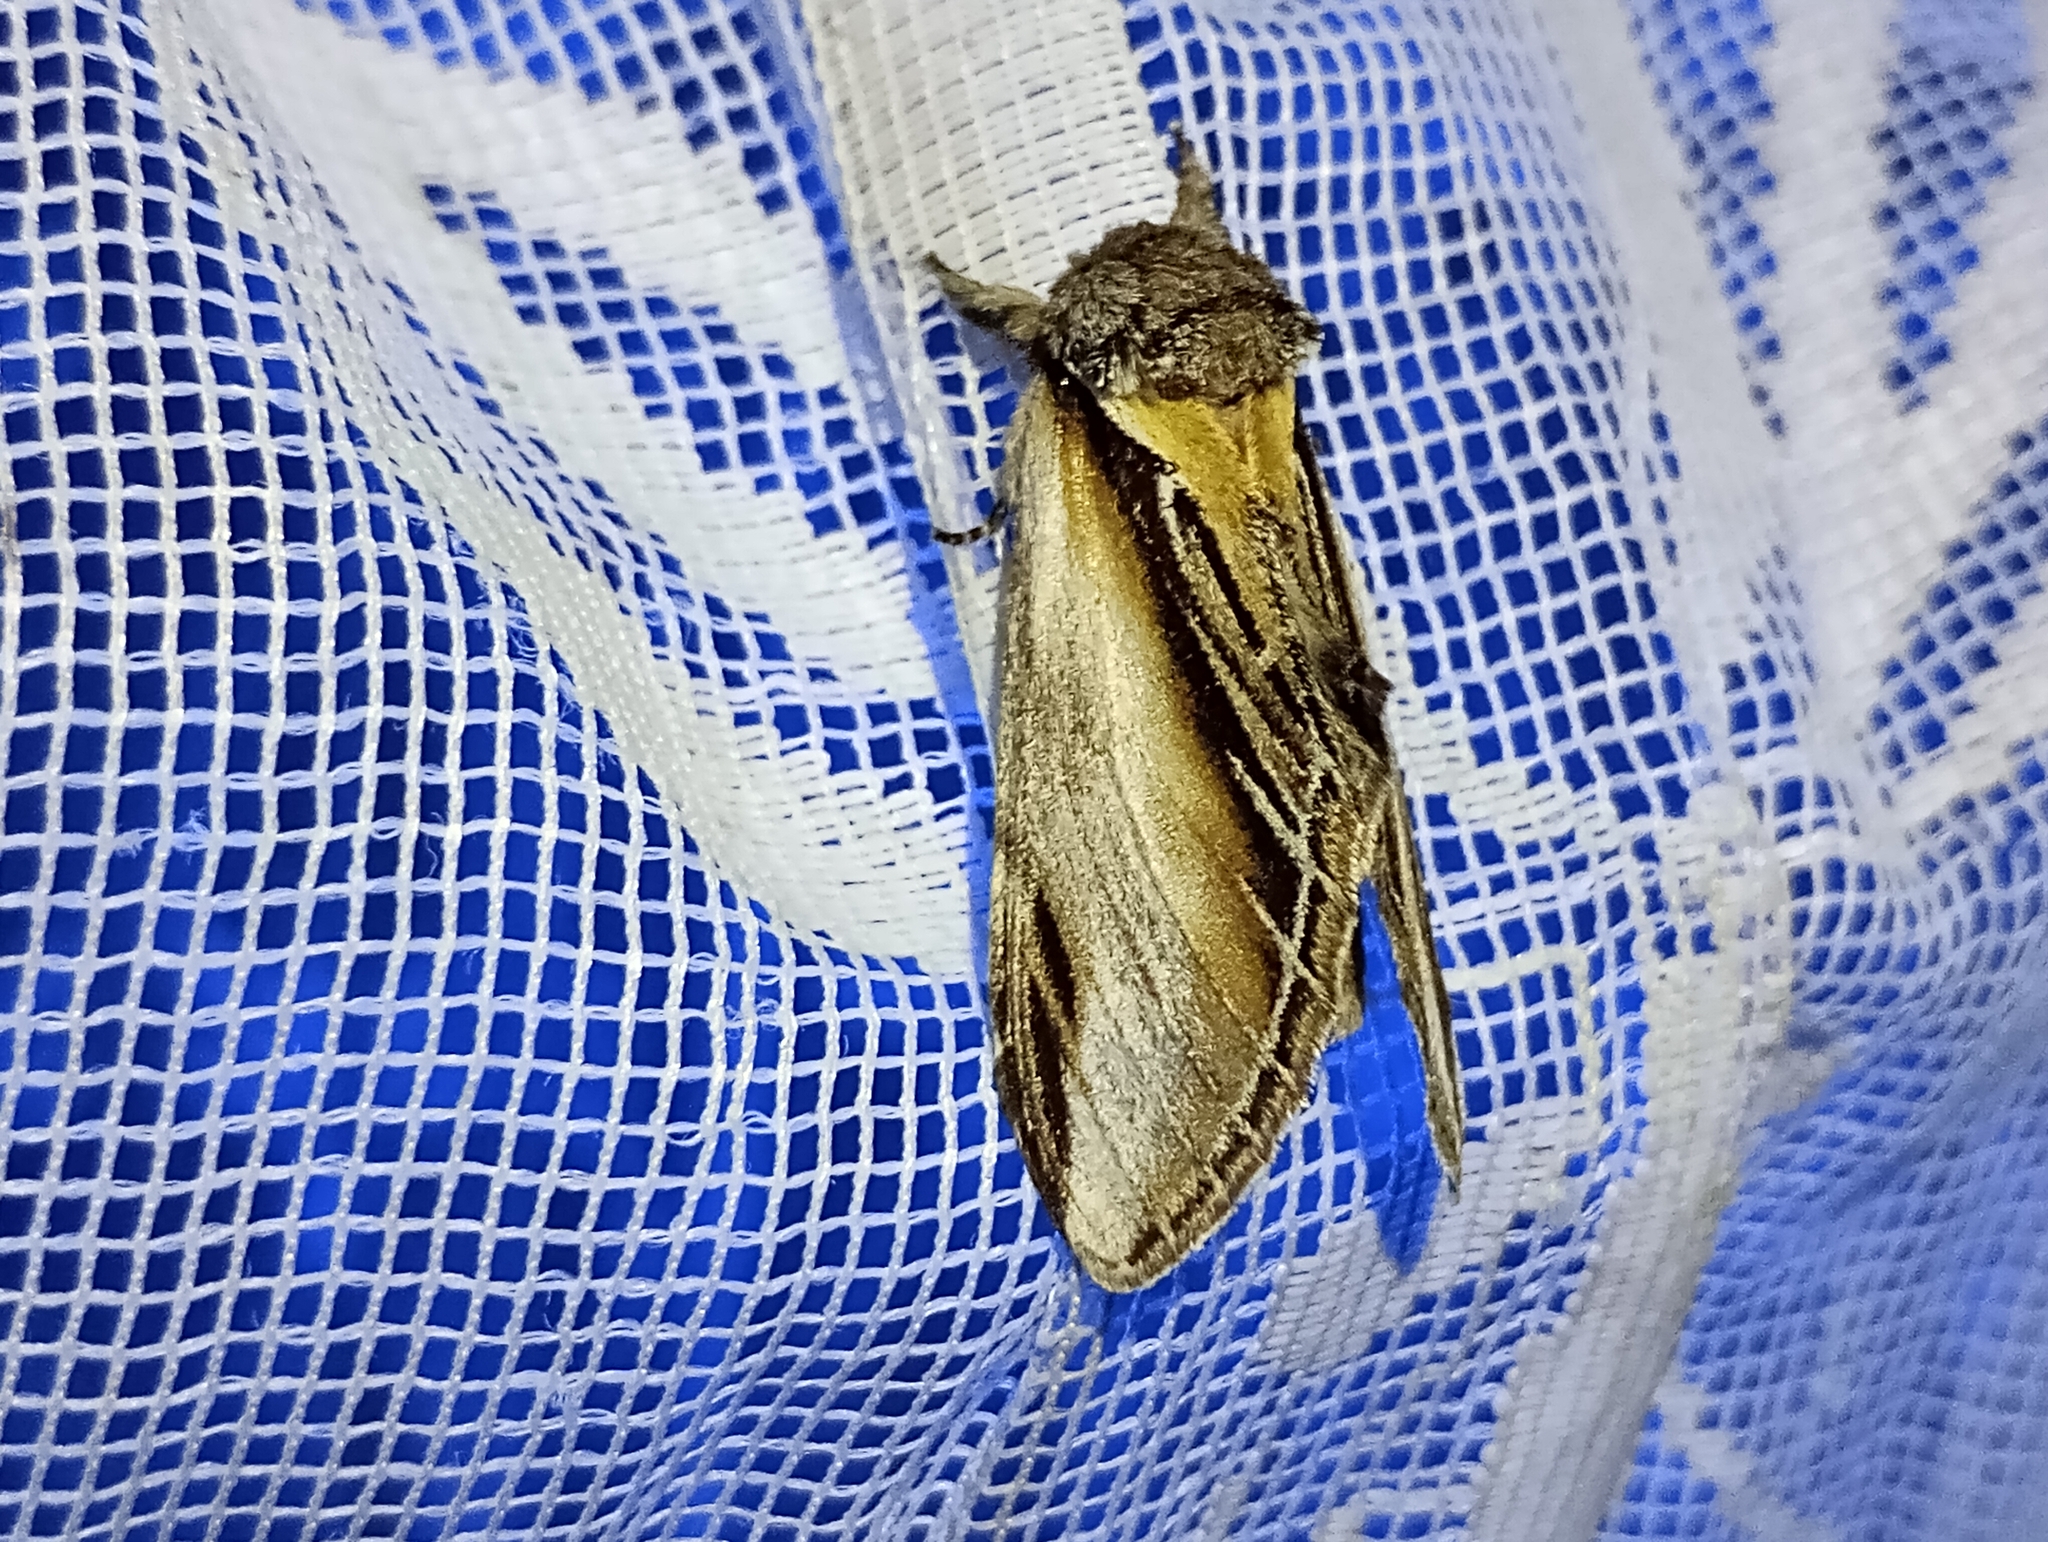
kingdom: Animalia
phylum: Arthropoda
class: Insecta
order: Lepidoptera
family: Notodontidae
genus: Pheosia
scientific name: Pheosia tremula
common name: Swallow prominent
